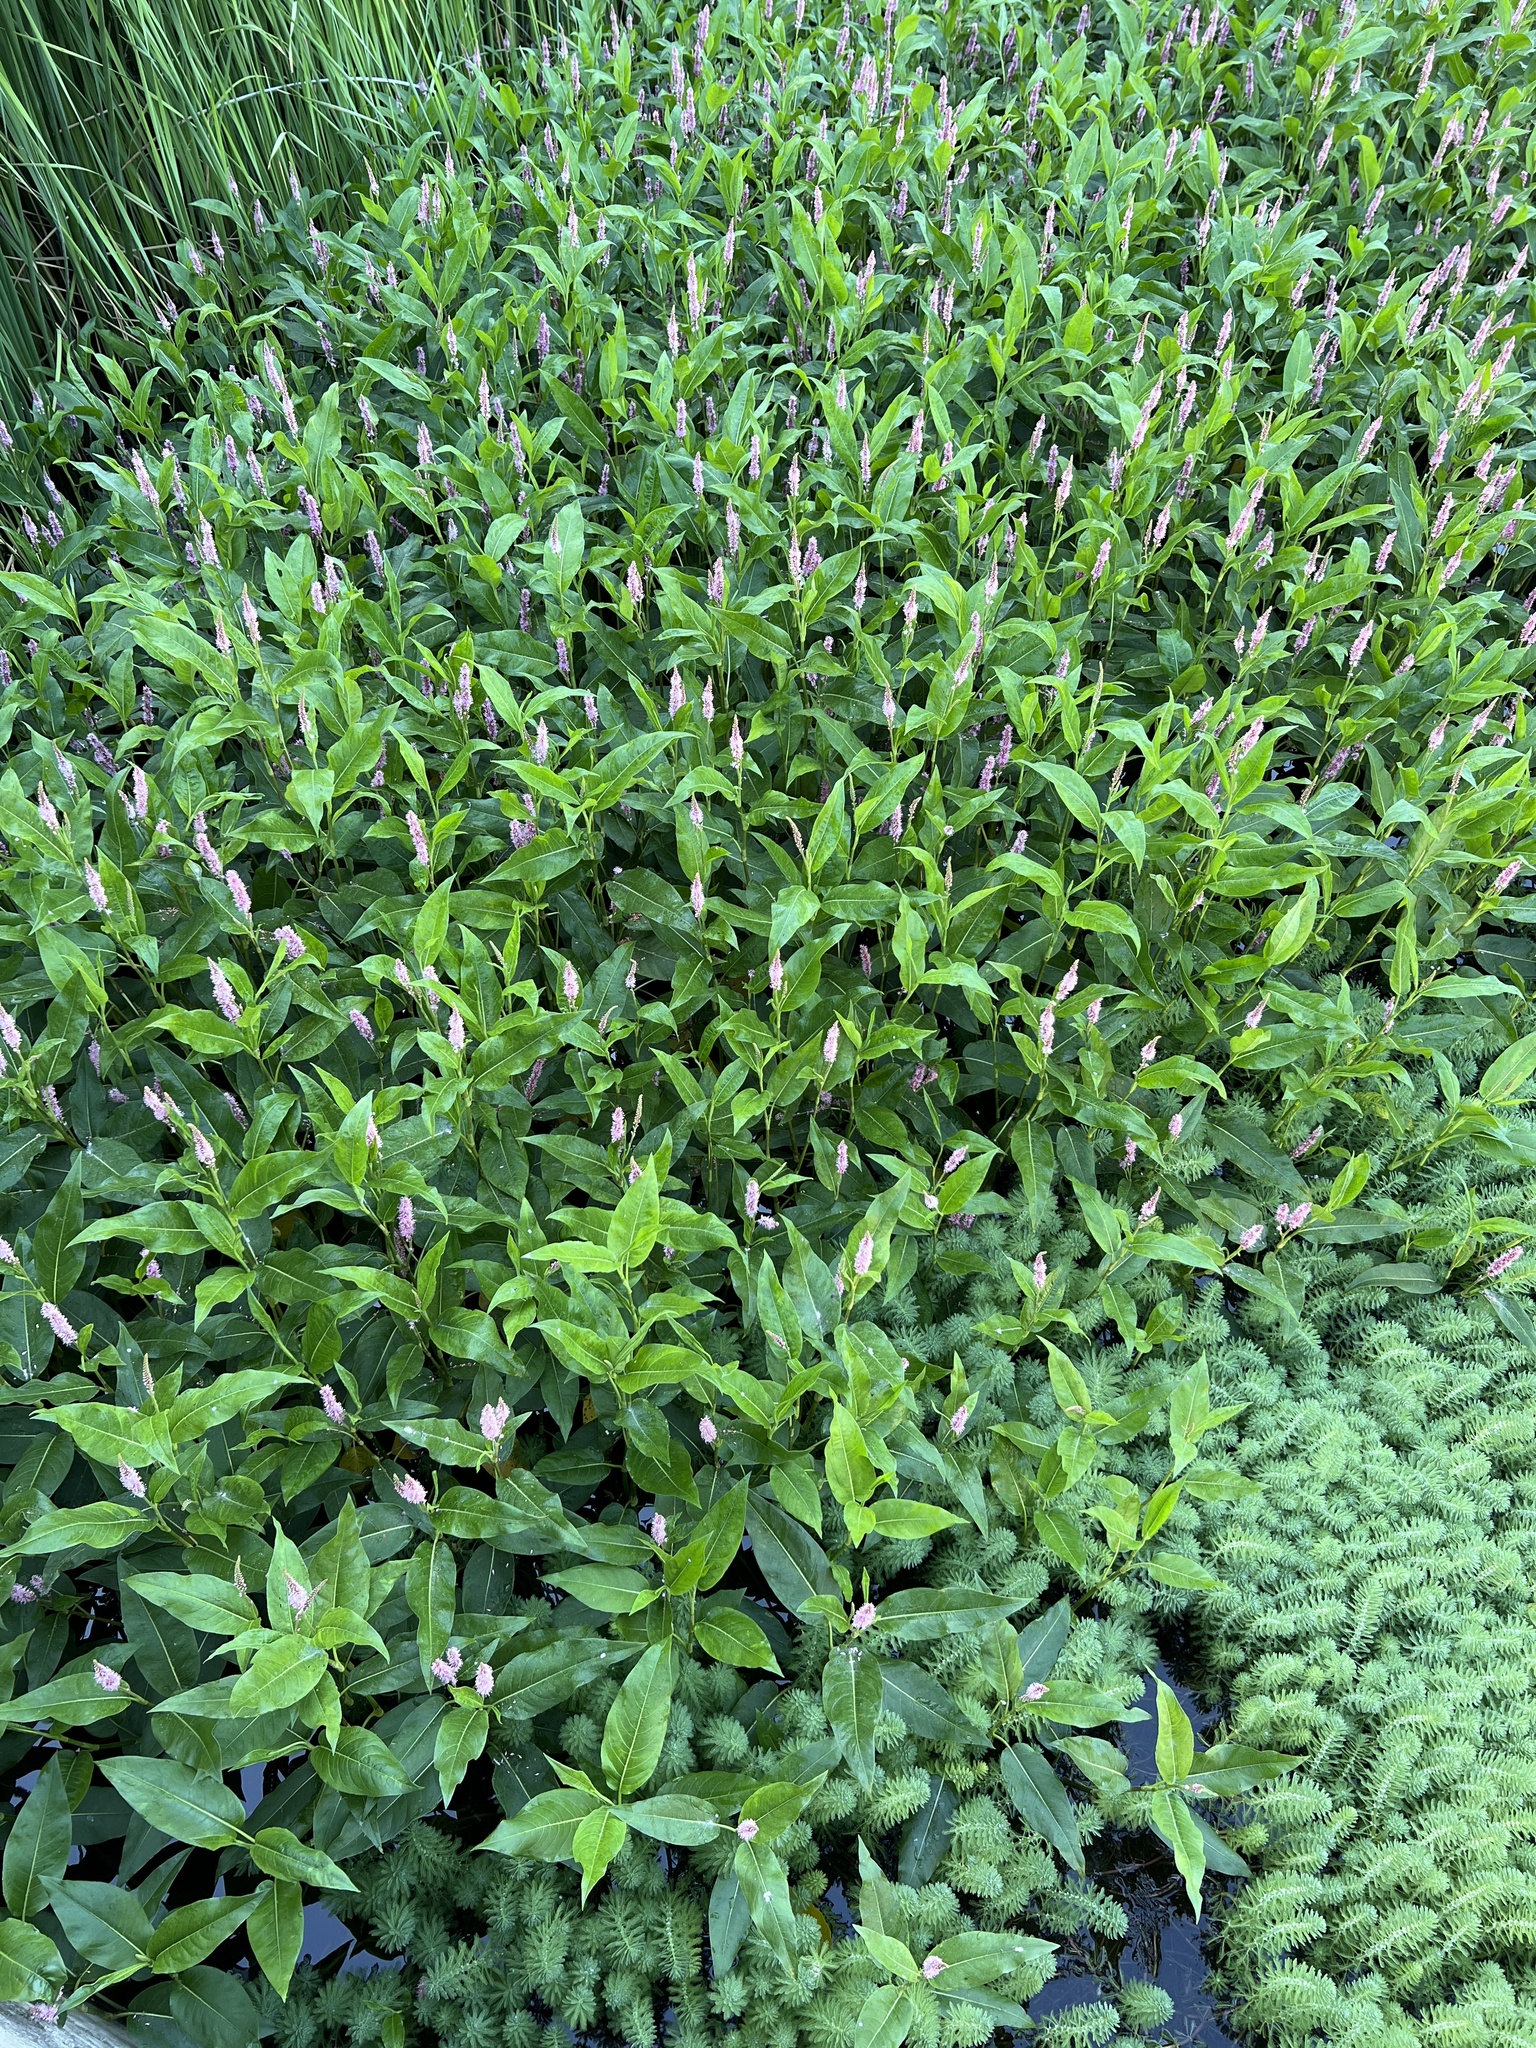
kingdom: Plantae
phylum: Tracheophyta
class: Magnoliopsida
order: Caryophyllales
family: Polygonaceae
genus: Persicaria
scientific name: Persicaria amphibia
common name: Amphibious bistort
